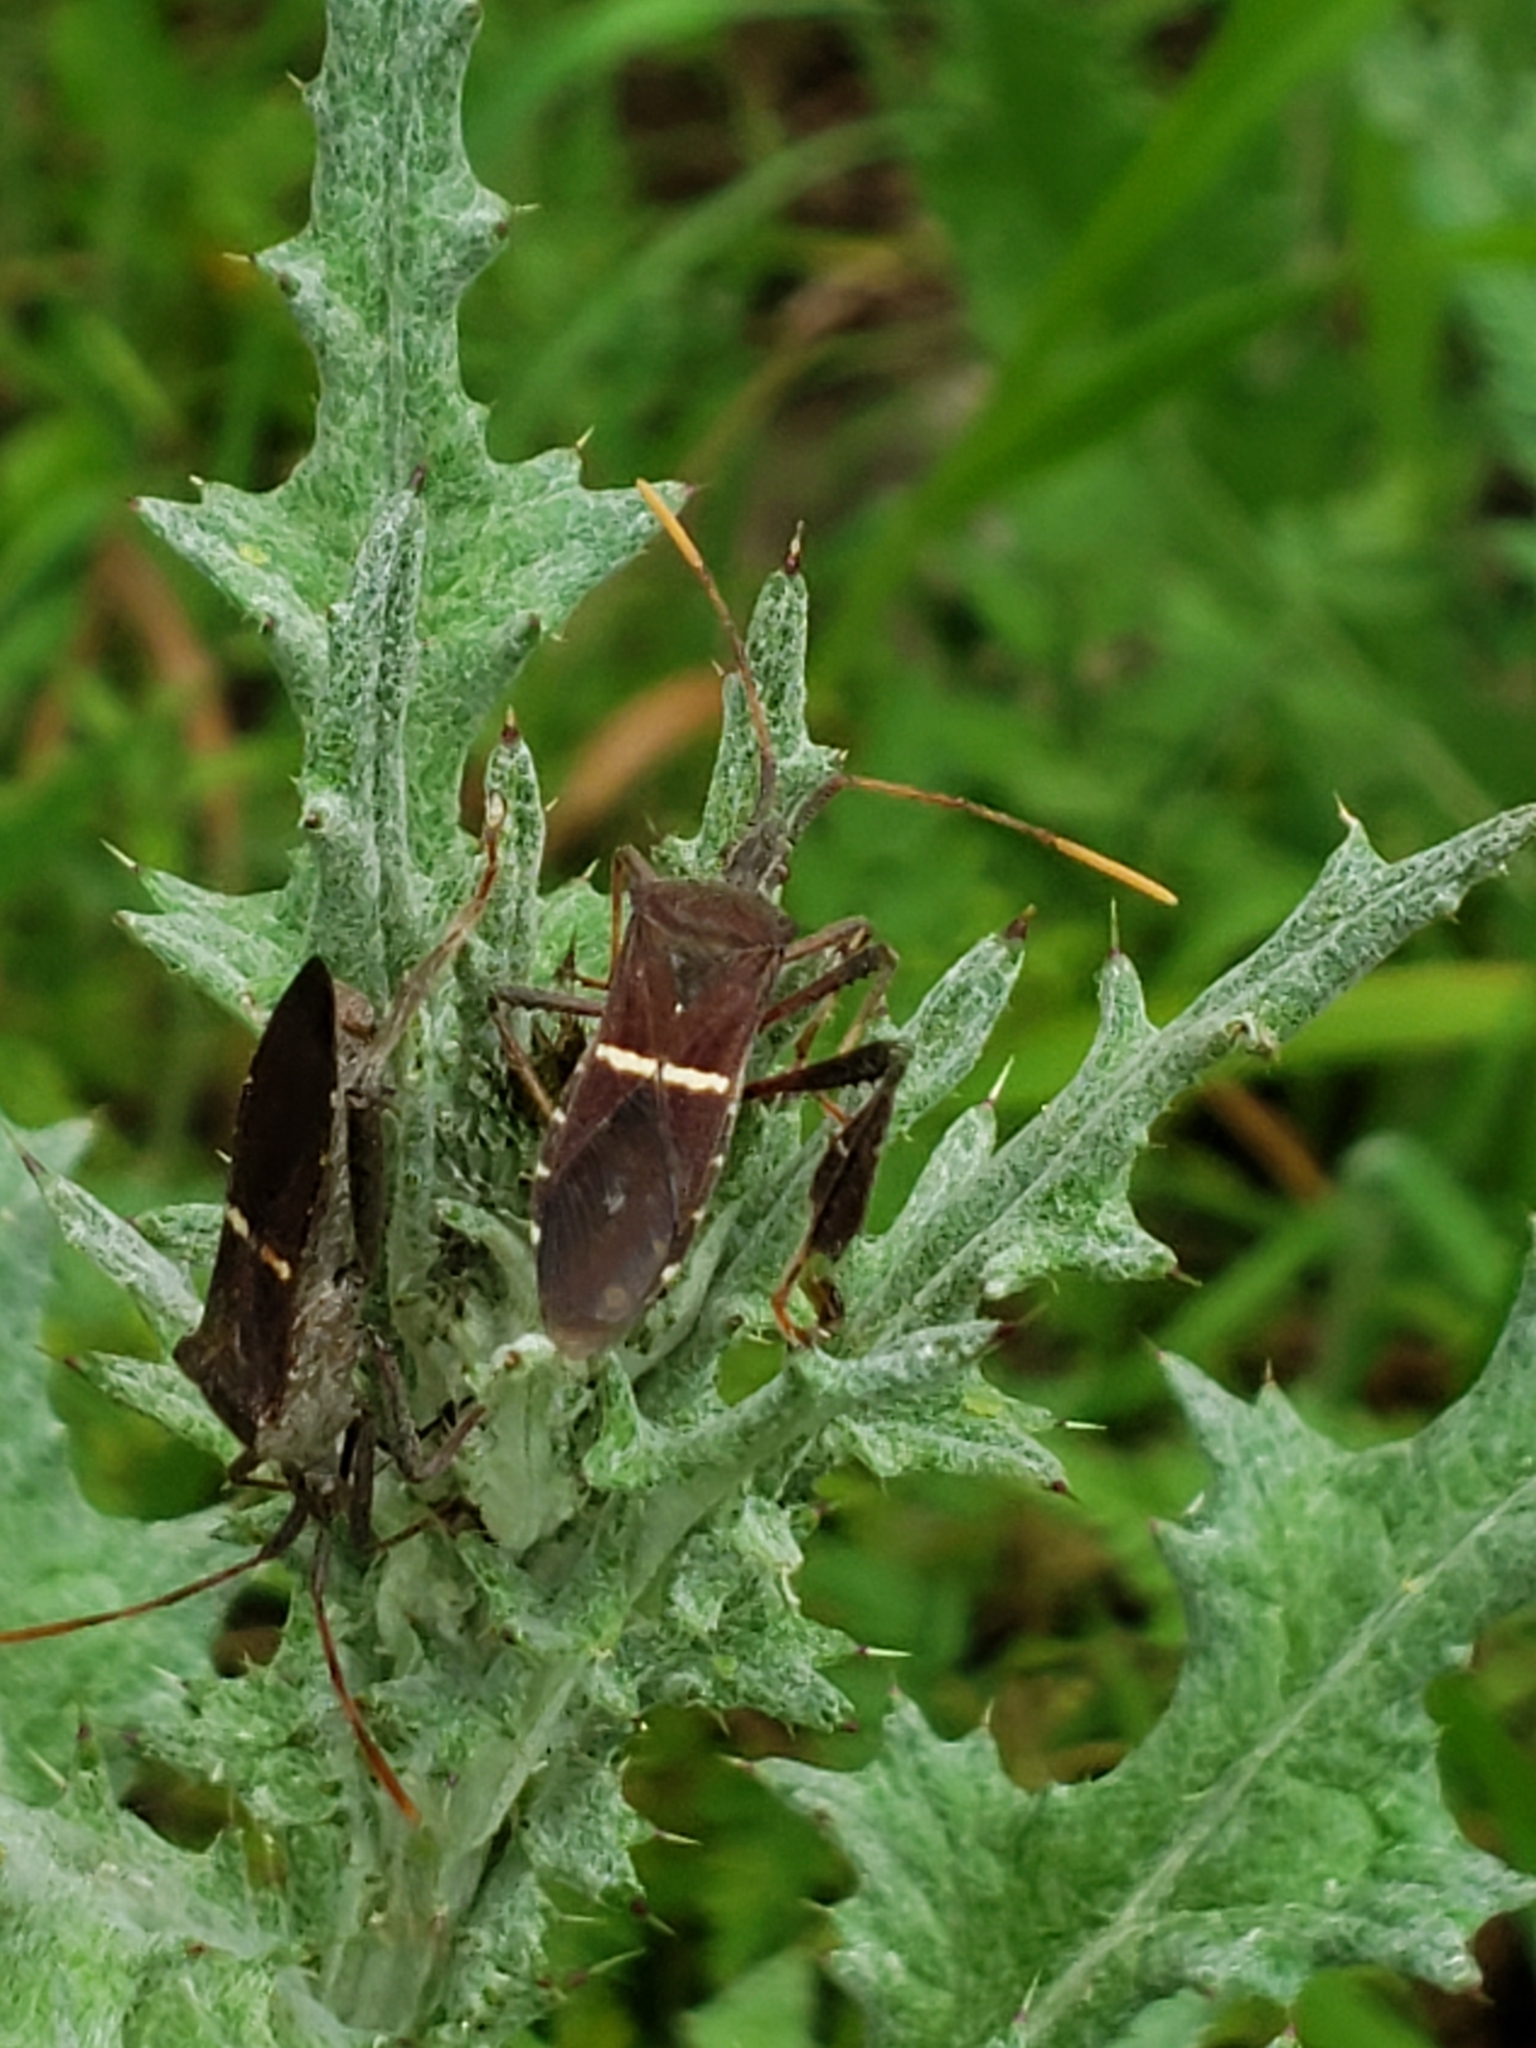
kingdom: Animalia
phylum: Arthropoda
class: Insecta
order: Hemiptera
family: Coreidae
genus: Leptoglossus
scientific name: Leptoglossus phyllopus
